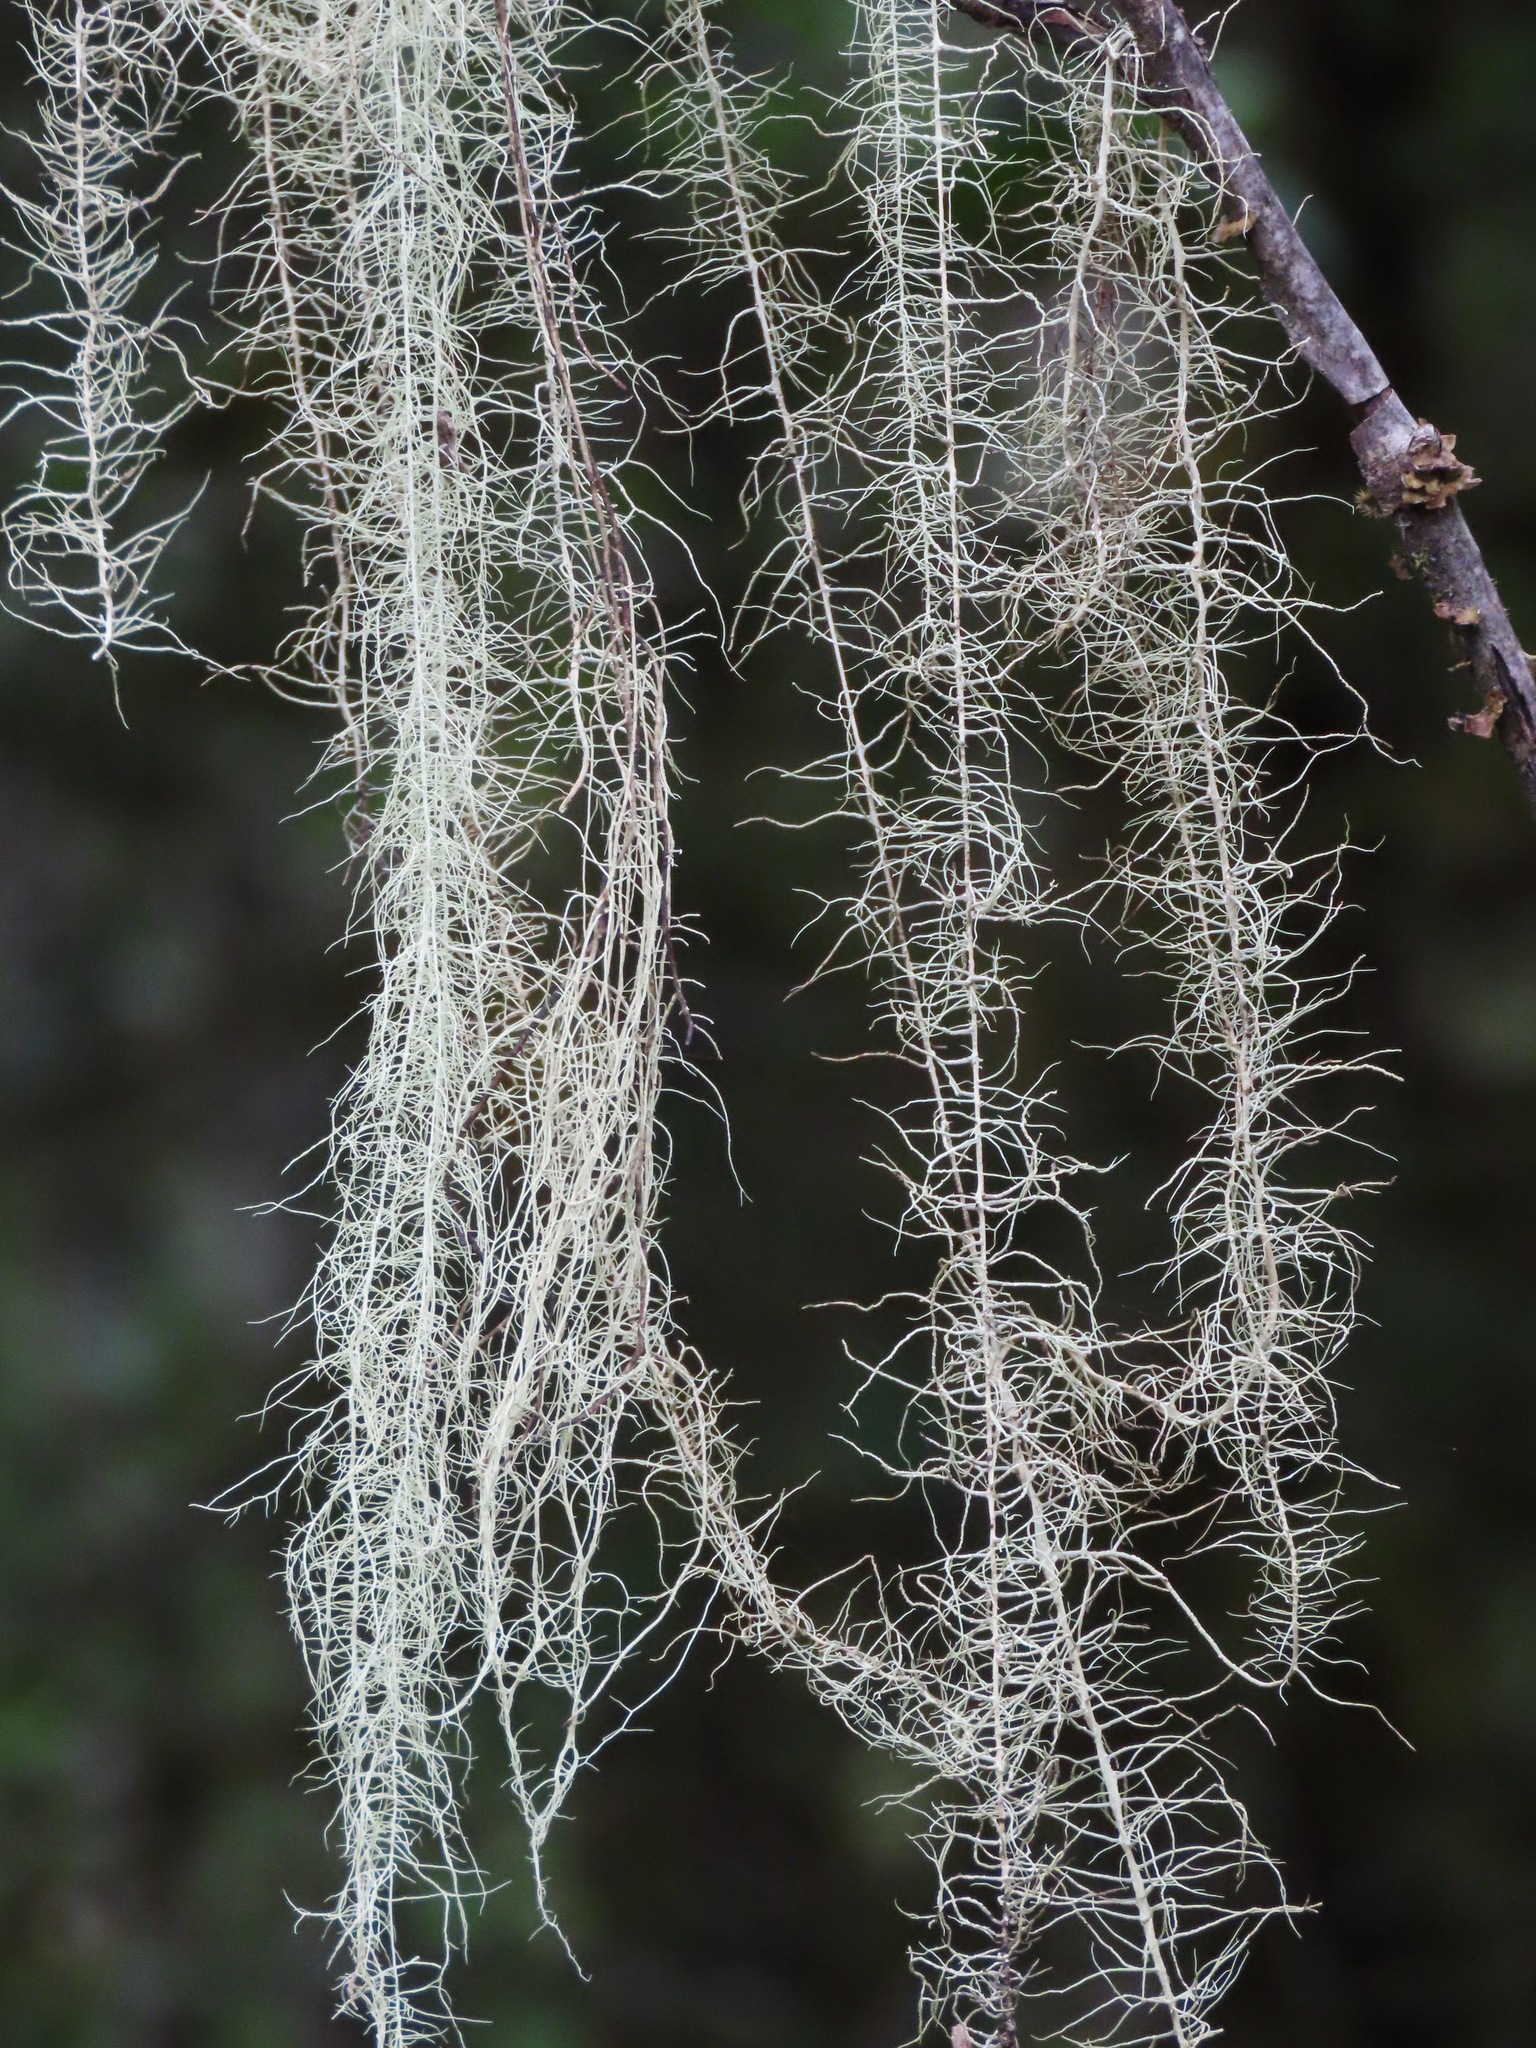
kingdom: Fungi
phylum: Ascomycota
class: Lecanoromycetes
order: Lecanorales
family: Parmeliaceae
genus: Dolichousnea
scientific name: Dolichousnea longissima
